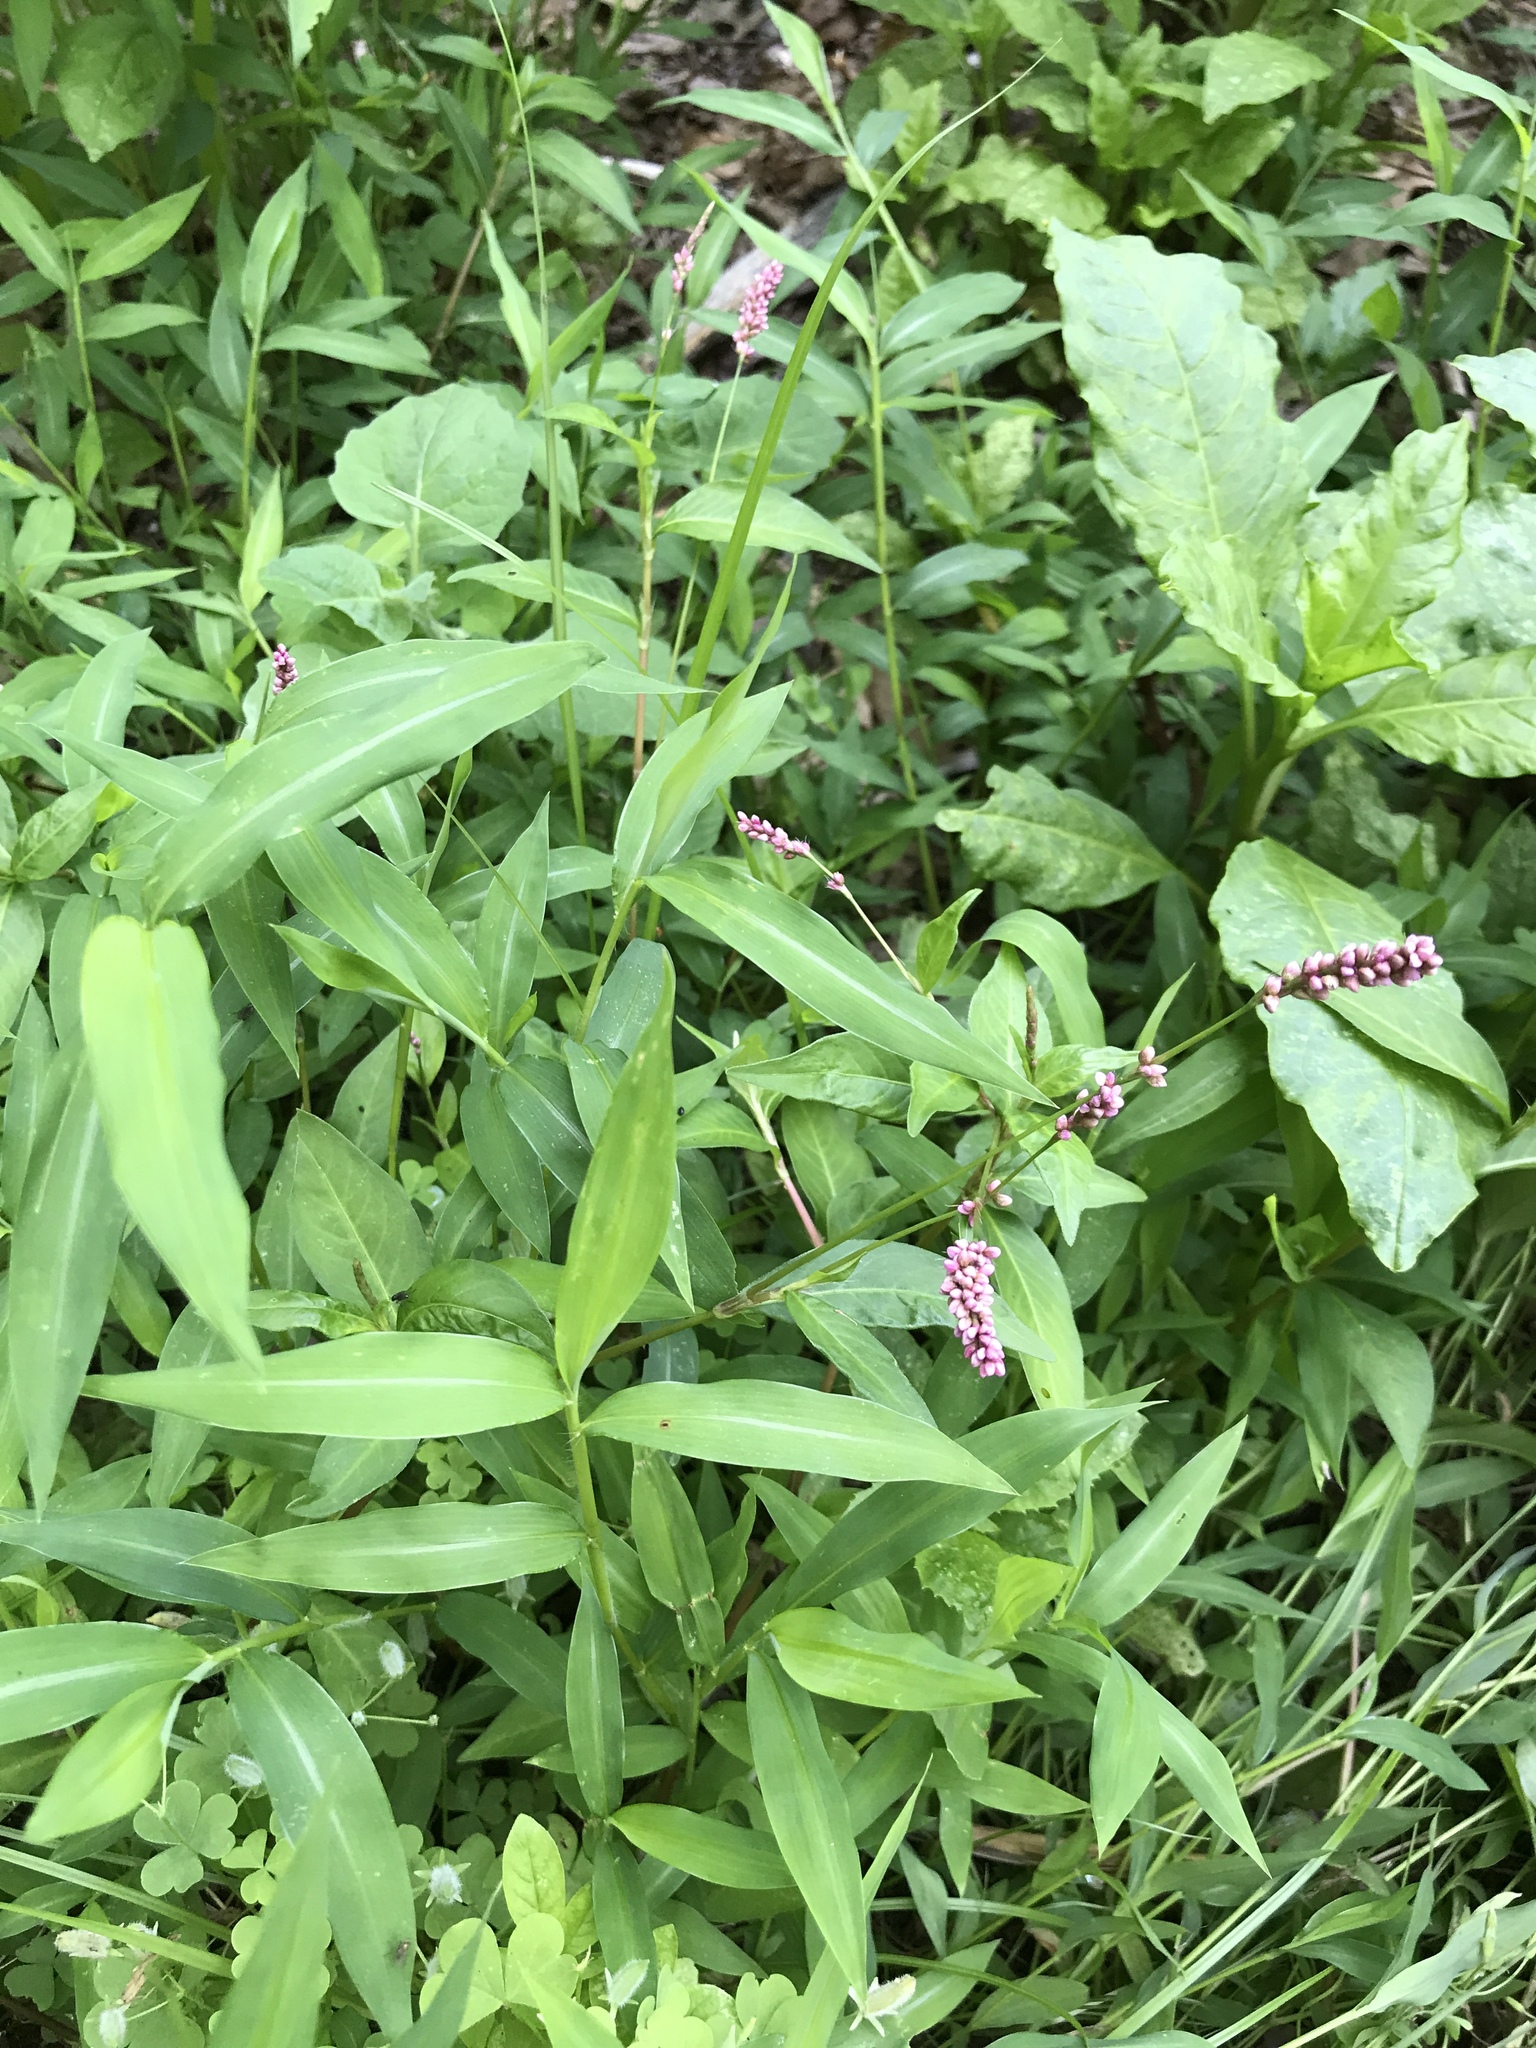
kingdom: Plantae
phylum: Tracheophyta
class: Magnoliopsida
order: Caryophyllales
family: Polygonaceae
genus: Persicaria
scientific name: Persicaria longiseta
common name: Bristly lady's-thumb
